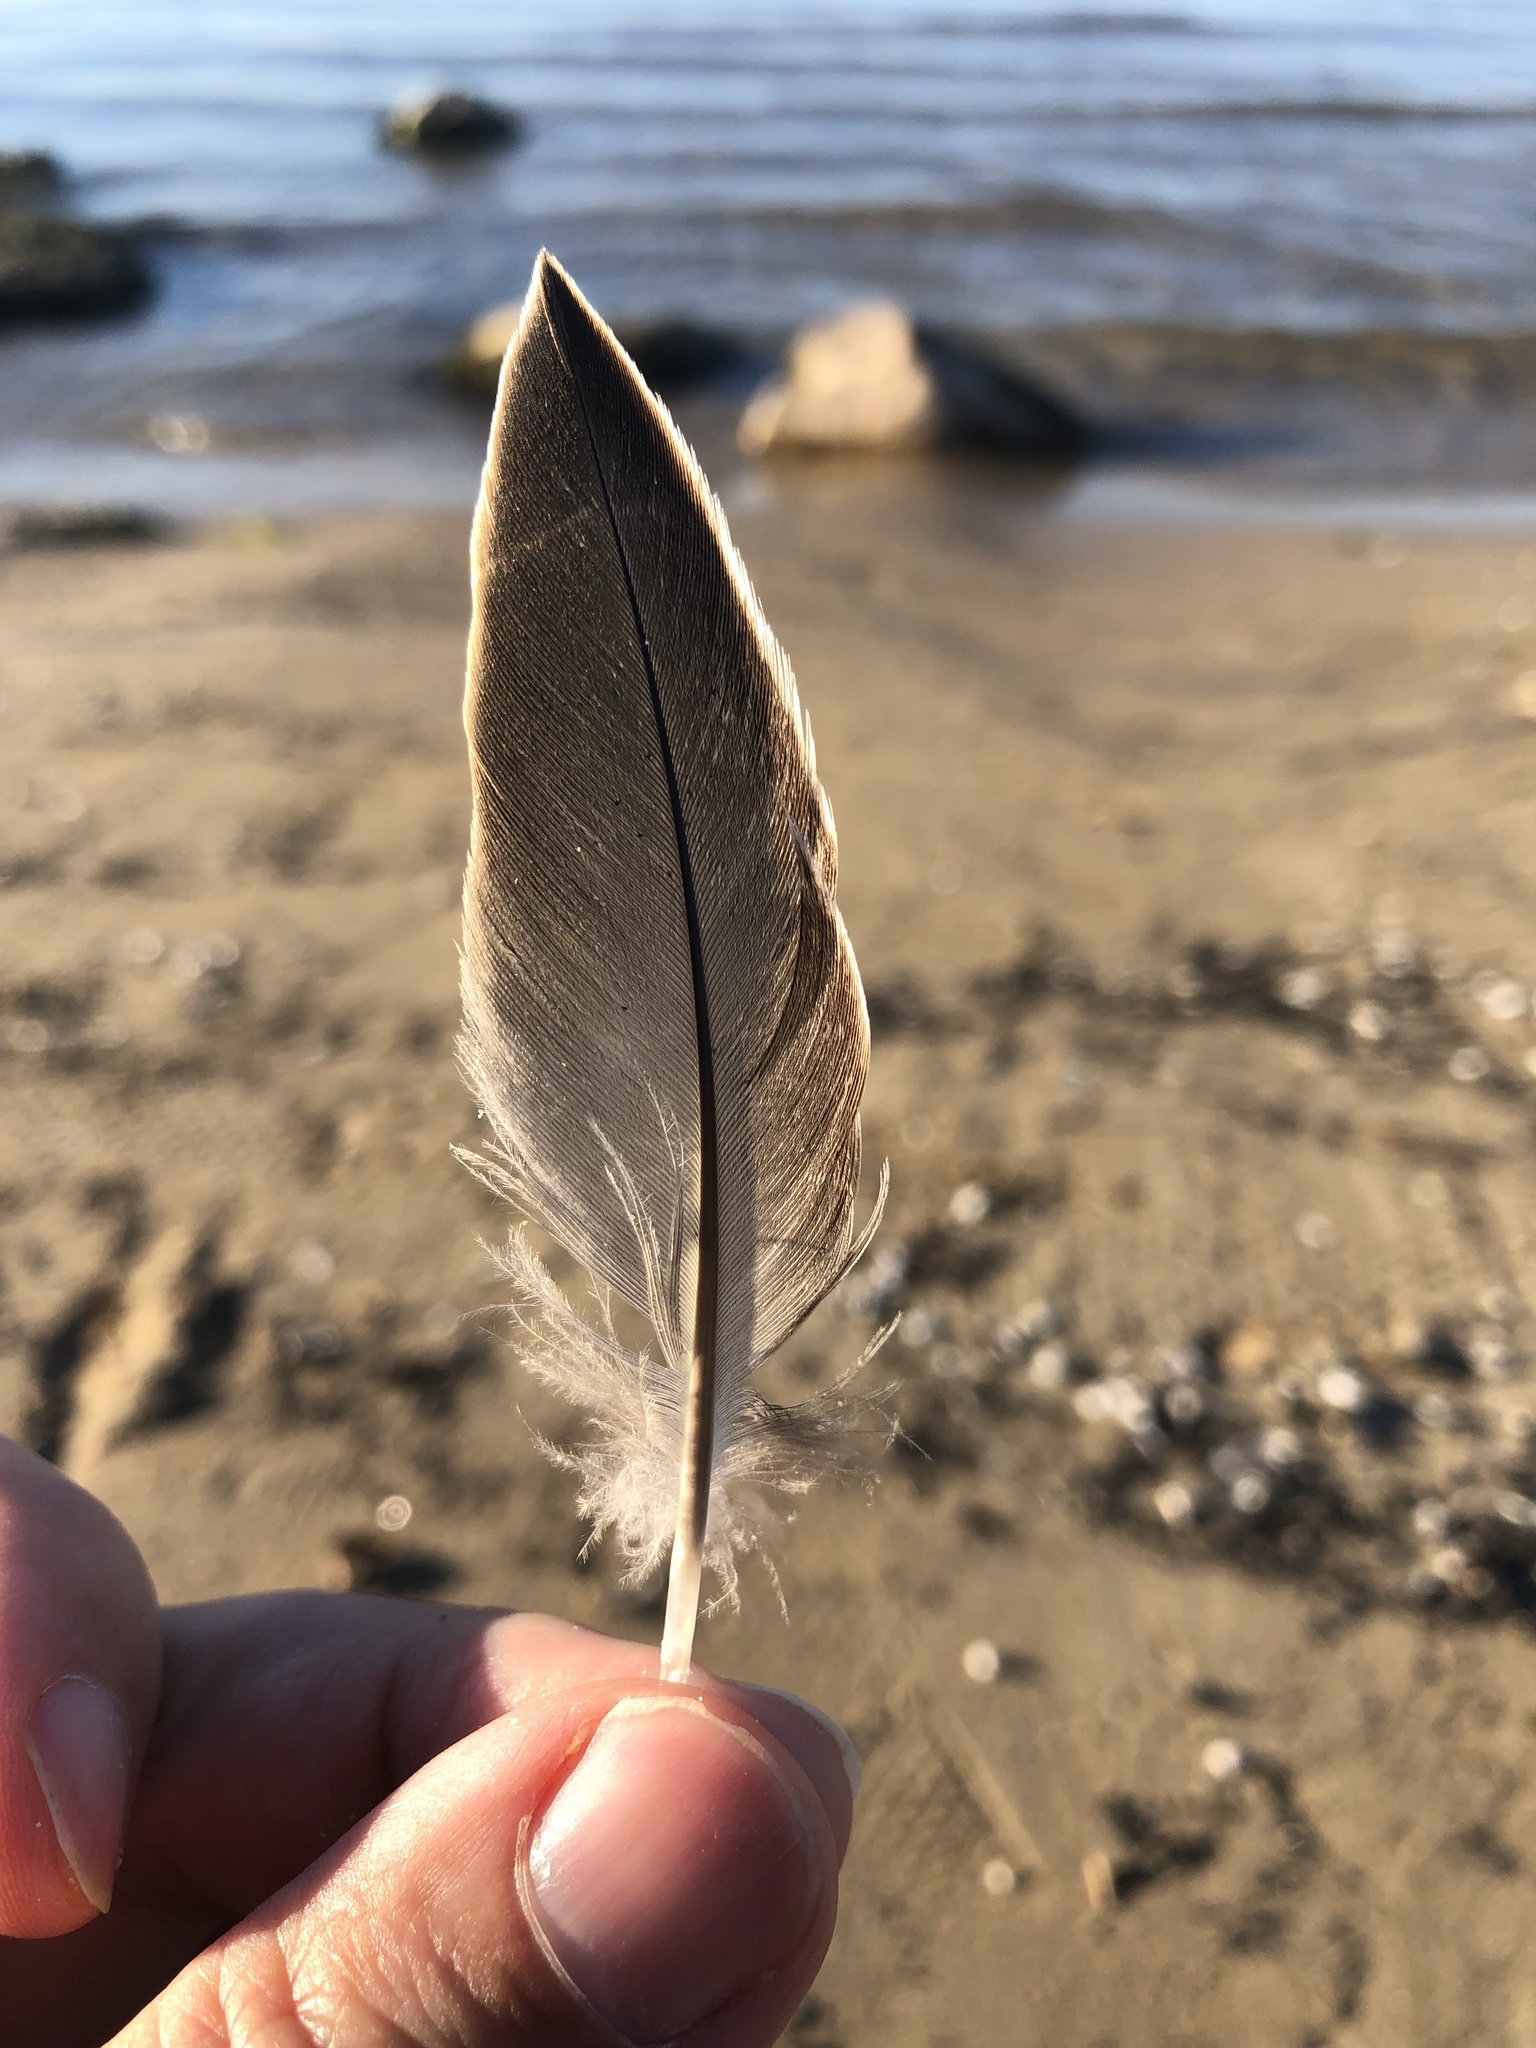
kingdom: Animalia
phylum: Chordata
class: Aves
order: Anseriformes
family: Anatidae
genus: Anas
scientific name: Anas platyrhynchos
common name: Mallard
